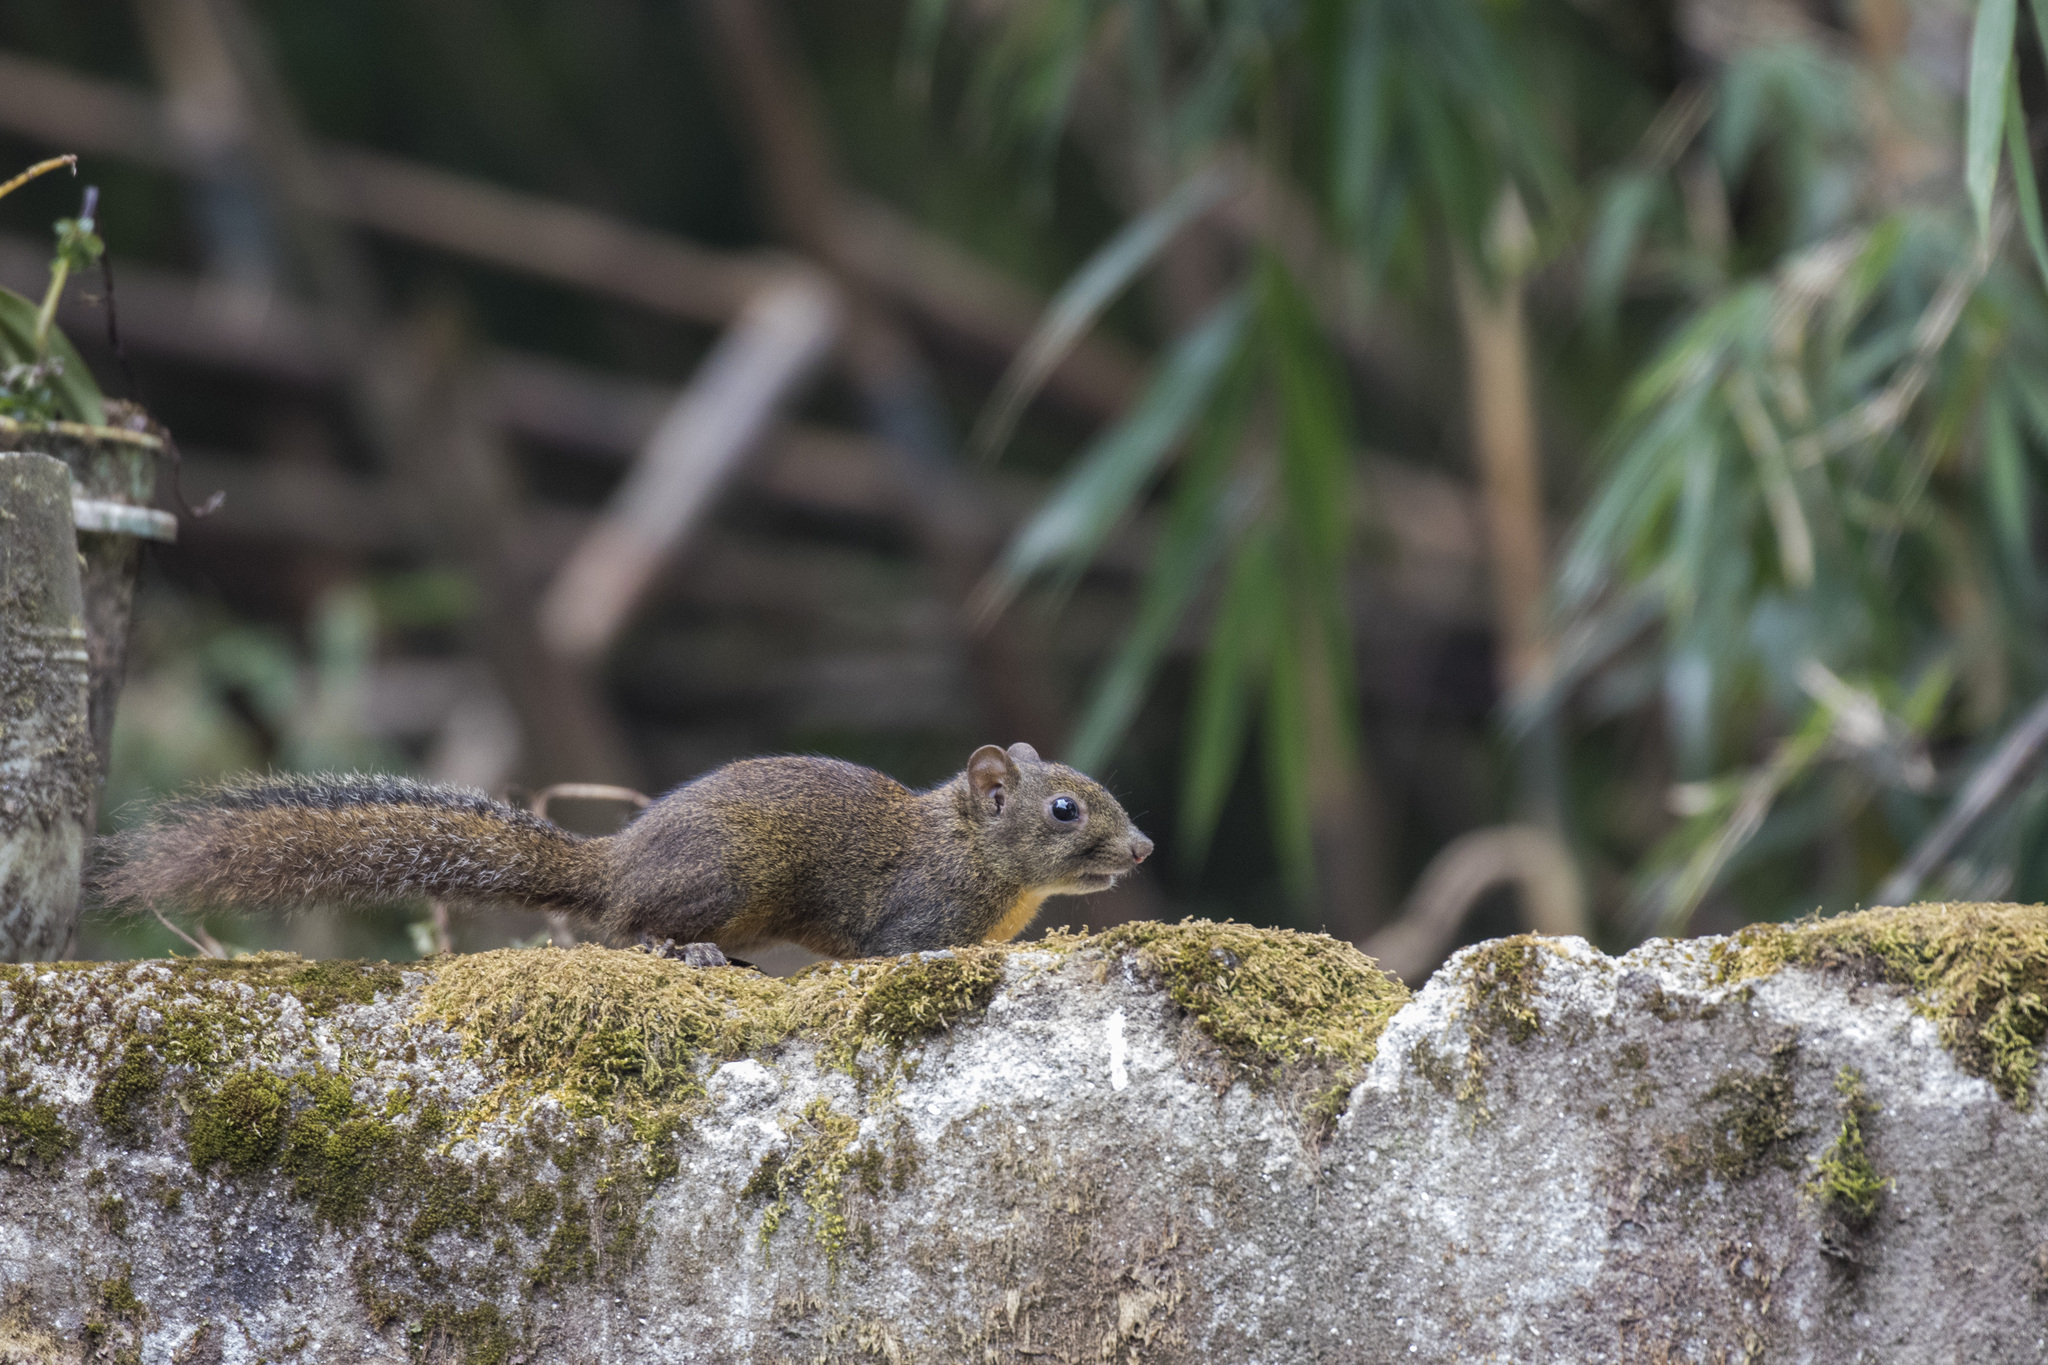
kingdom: Animalia
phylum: Chordata
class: Mammalia
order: Rodentia
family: Sciuridae
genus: Dremomys
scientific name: Dremomys lokriah
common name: Orange-bellied himalayan squirrel
